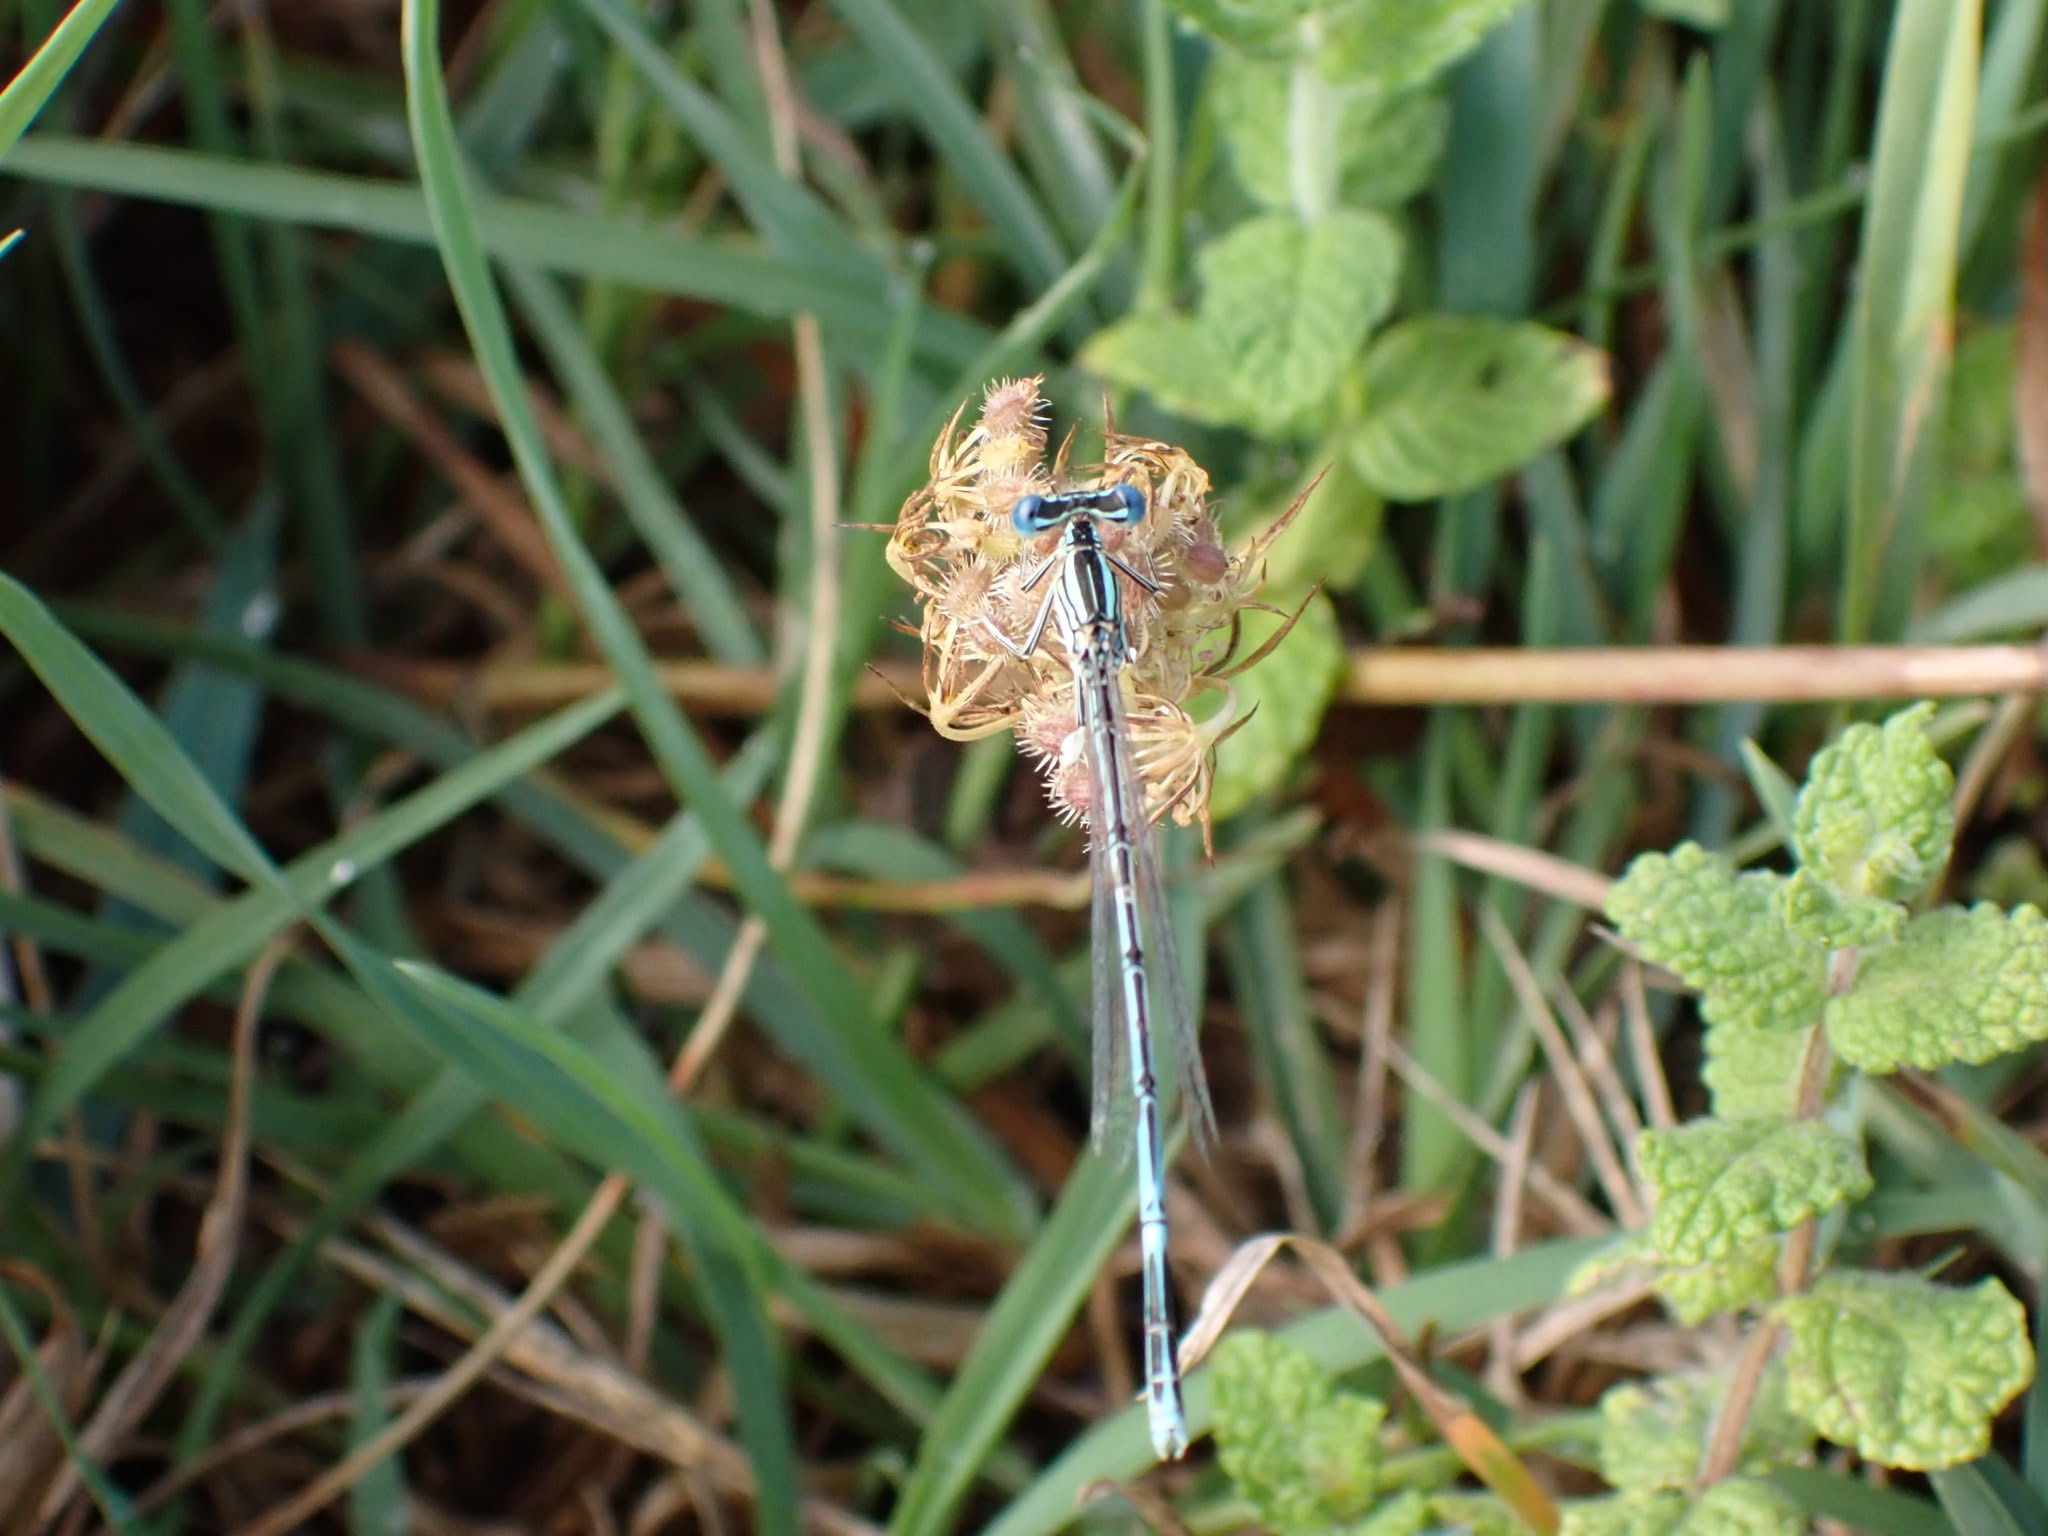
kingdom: Animalia
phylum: Arthropoda
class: Insecta
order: Odonata
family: Platycnemididae
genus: Platycnemis
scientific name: Platycnemis pennipes
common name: White-legged damselfly
